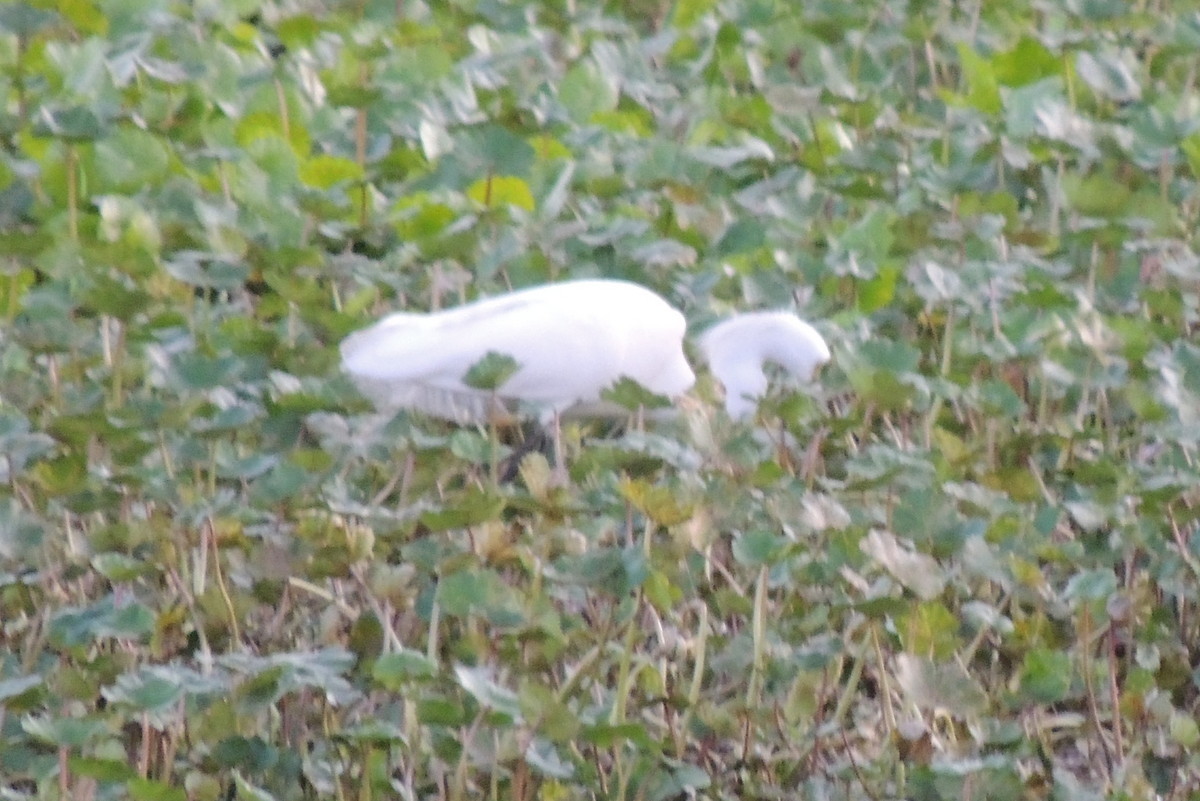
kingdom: Animalia
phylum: Chordata
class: Aves
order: Pelecaniformes
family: Ardeidae
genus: Egretta
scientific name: Egretta thula
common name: Snowy egret
